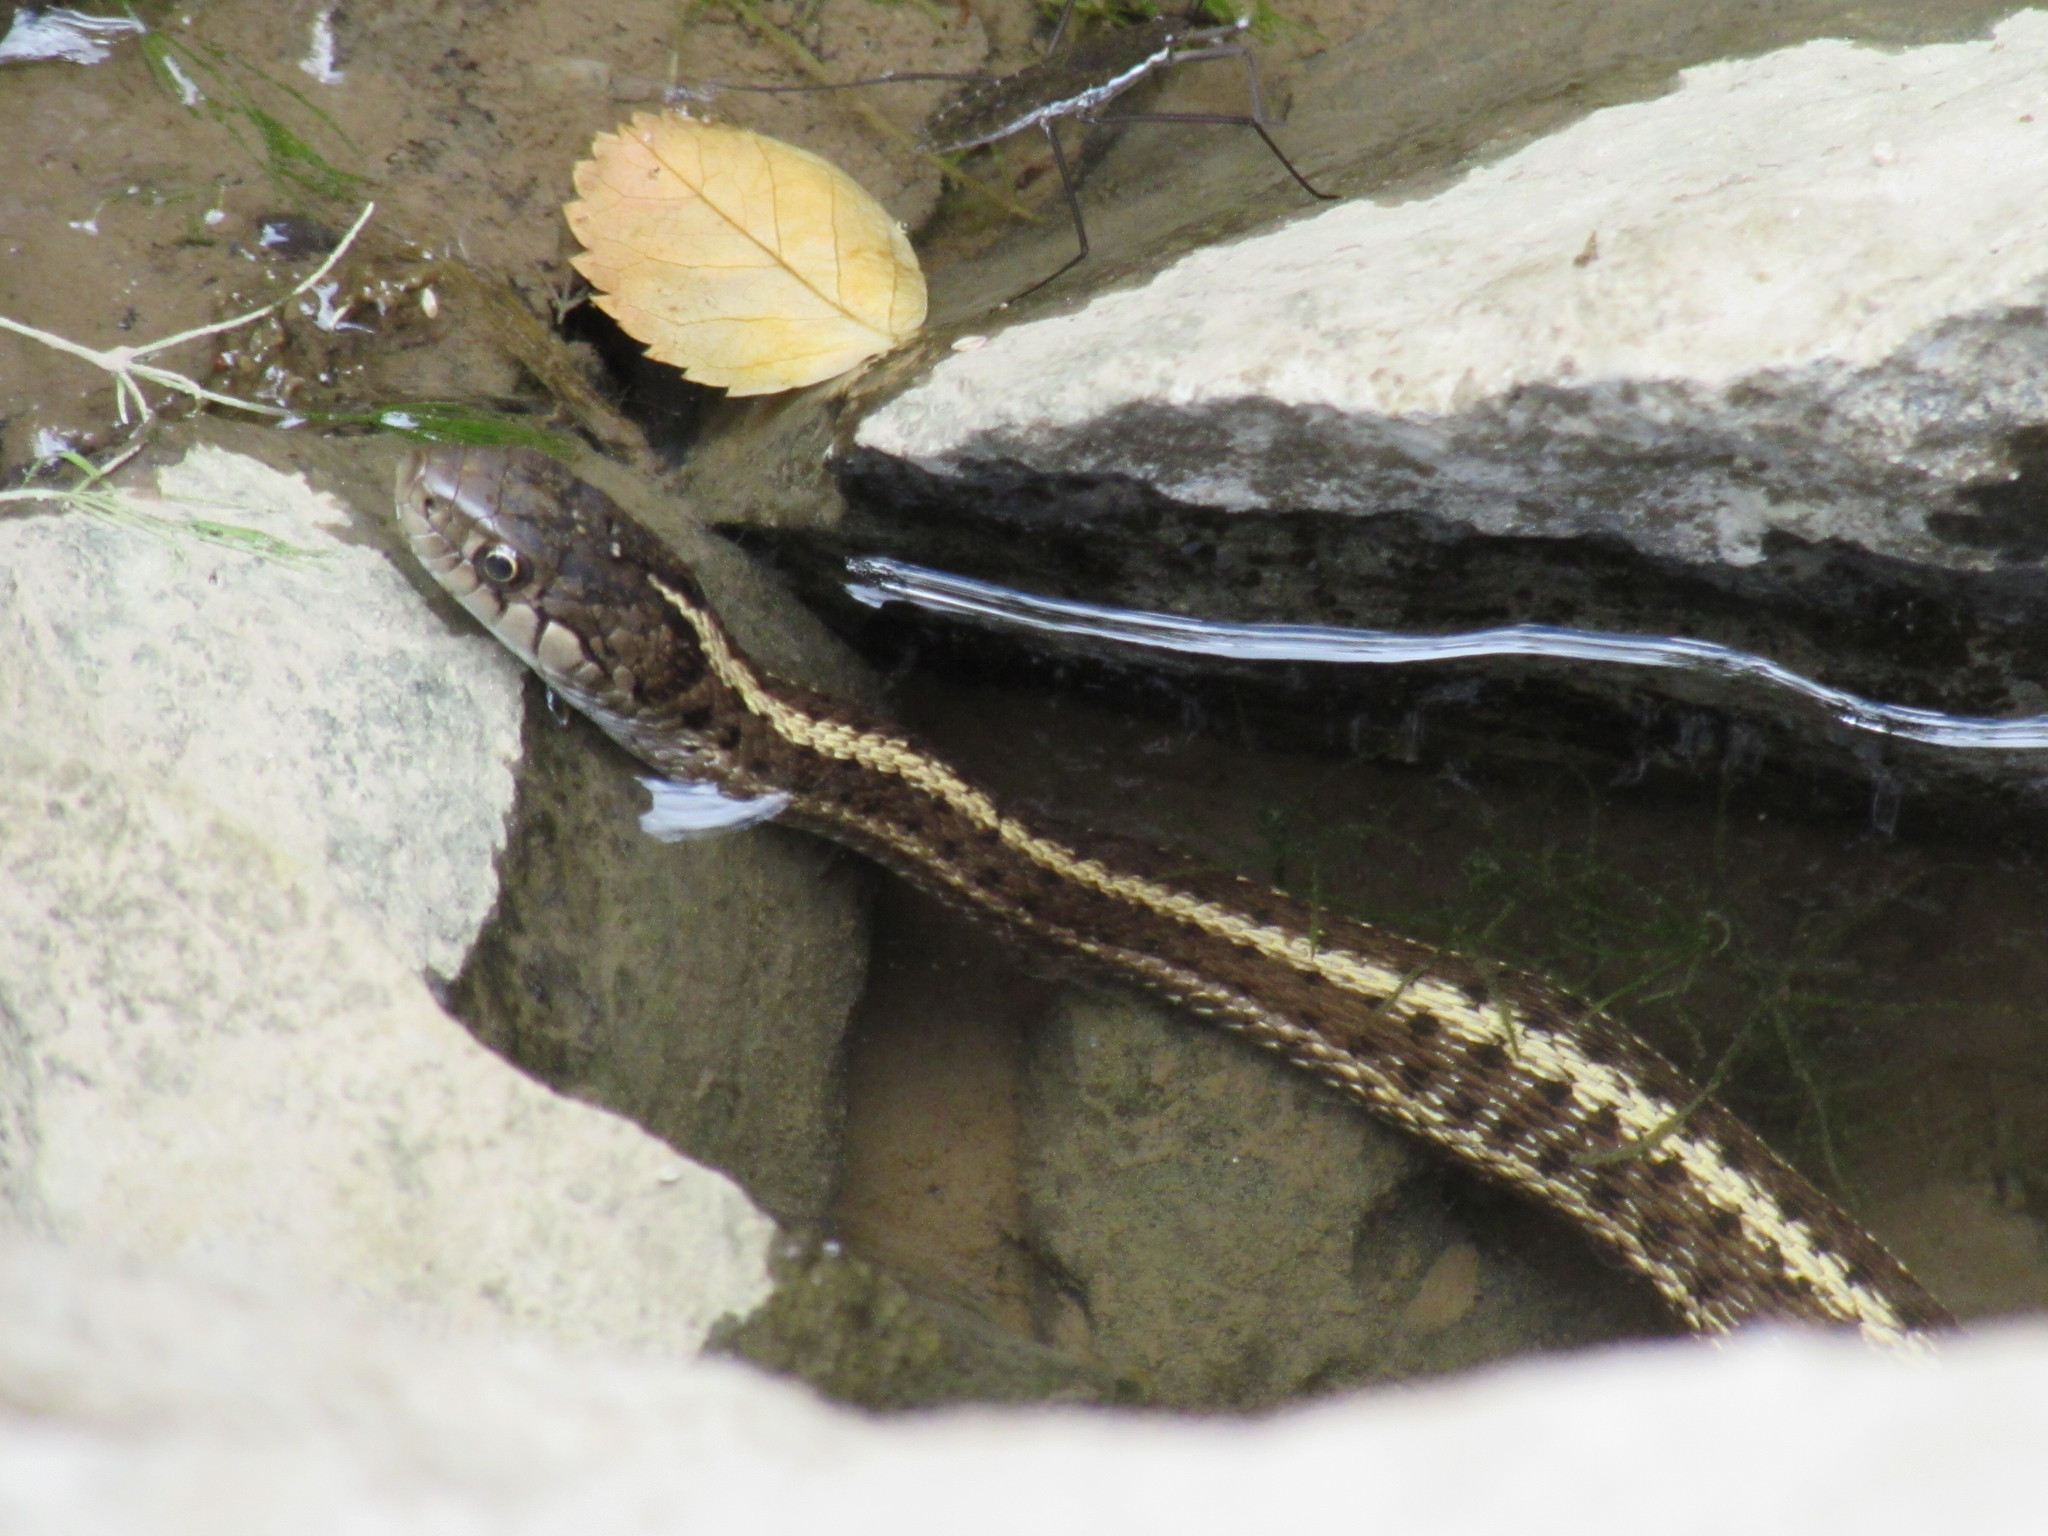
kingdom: Animalia
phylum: Chordata
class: Squamata
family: Colubridae
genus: Thamnophis
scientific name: Thamnophis elegans
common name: Western terrestrial garter snake
